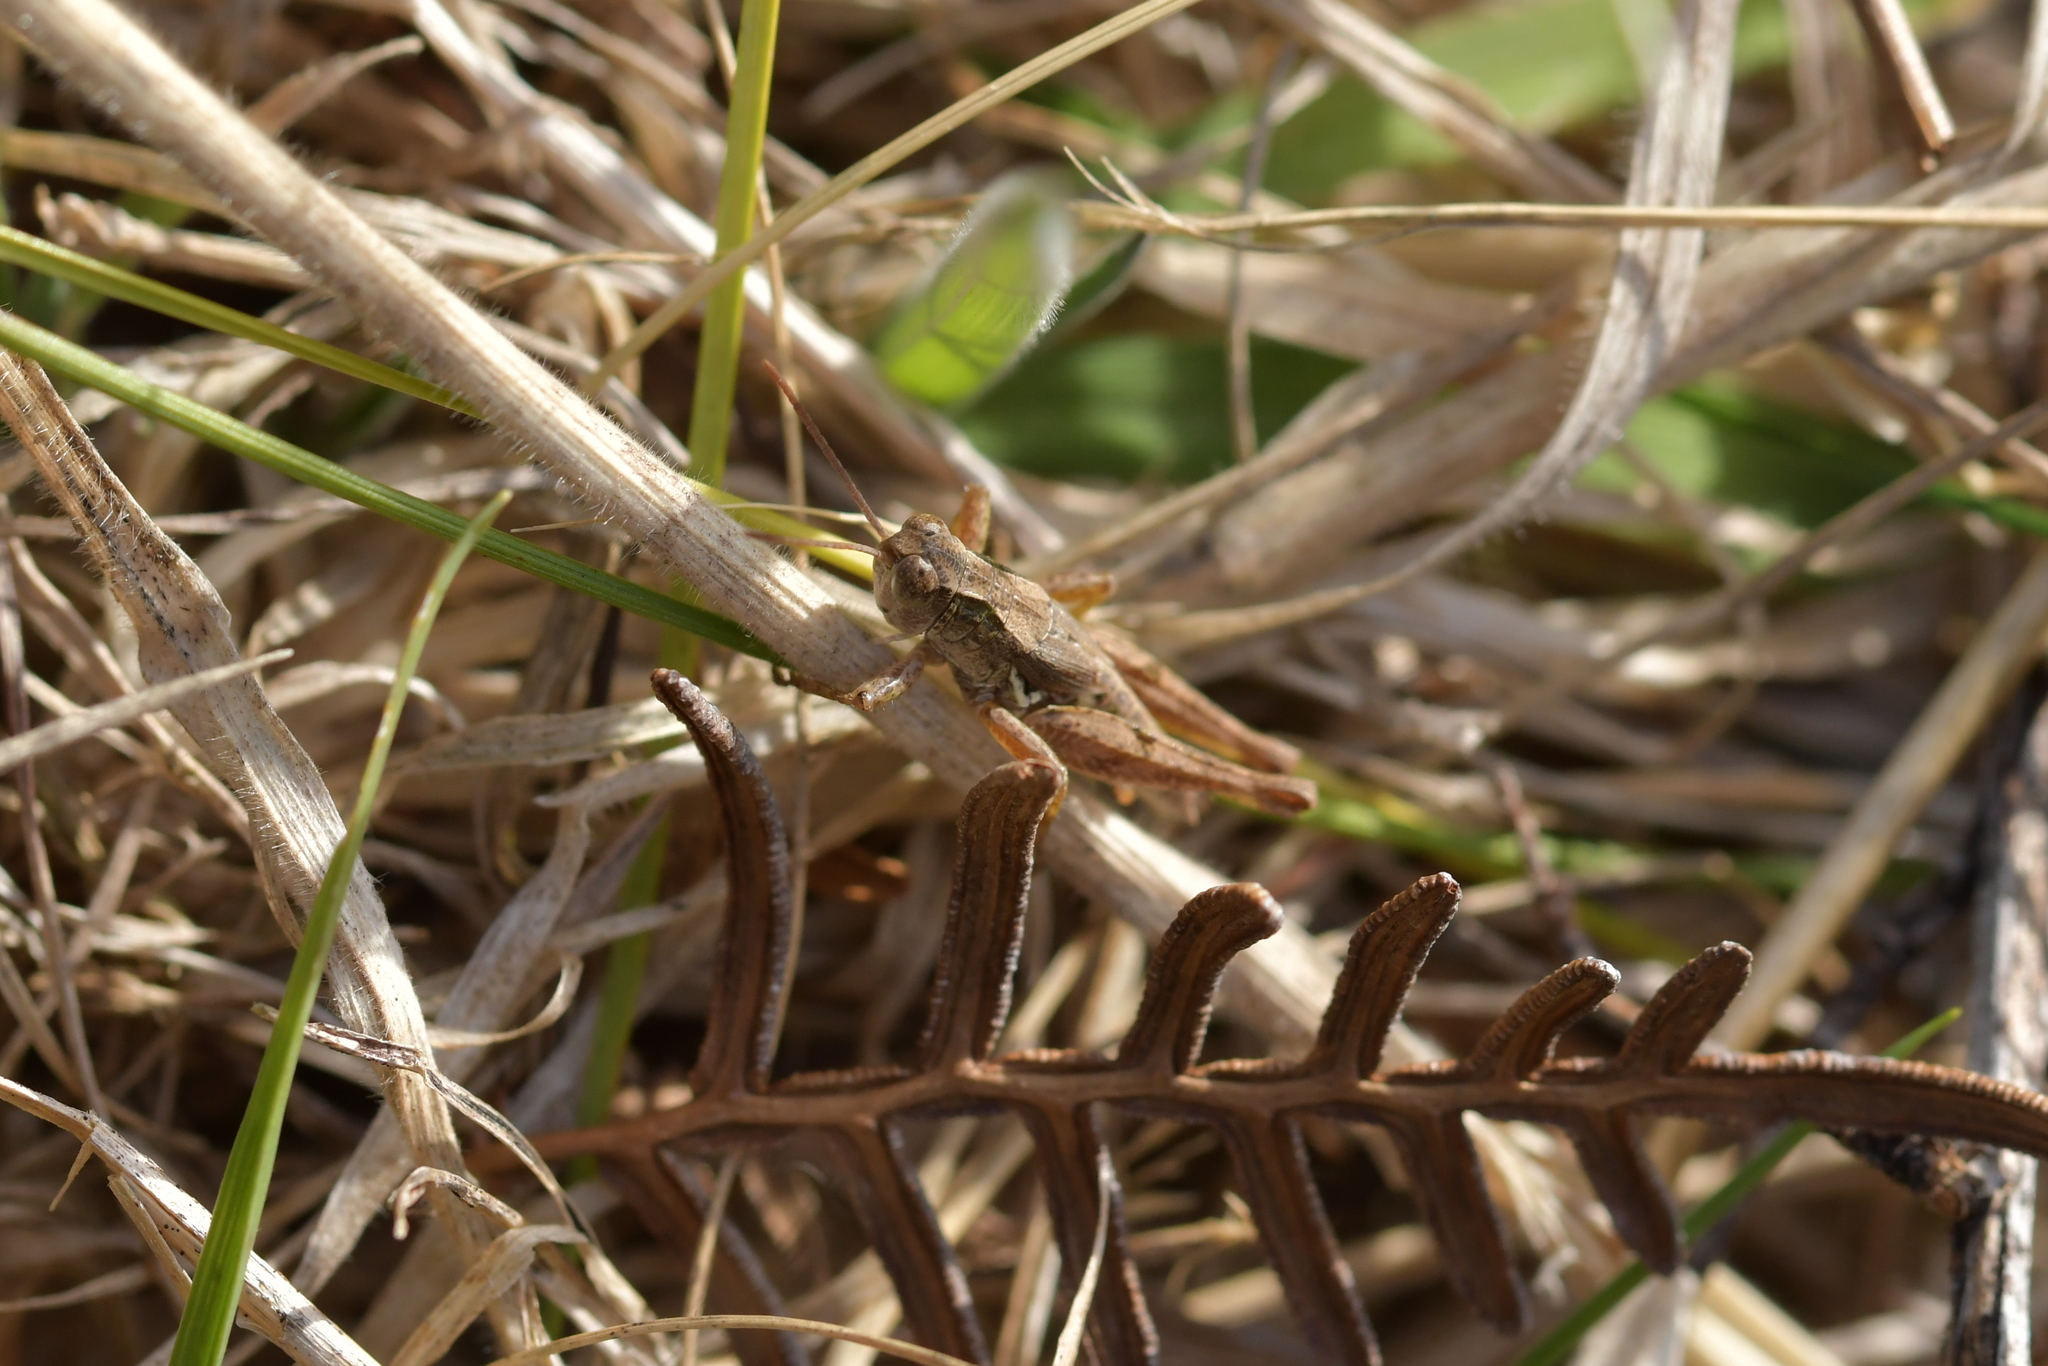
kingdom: Animalia
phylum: Arthropoda
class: Insecta
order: Orthoptera
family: Acrididae
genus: Phaulacridium
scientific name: Phaulacridium marginale
